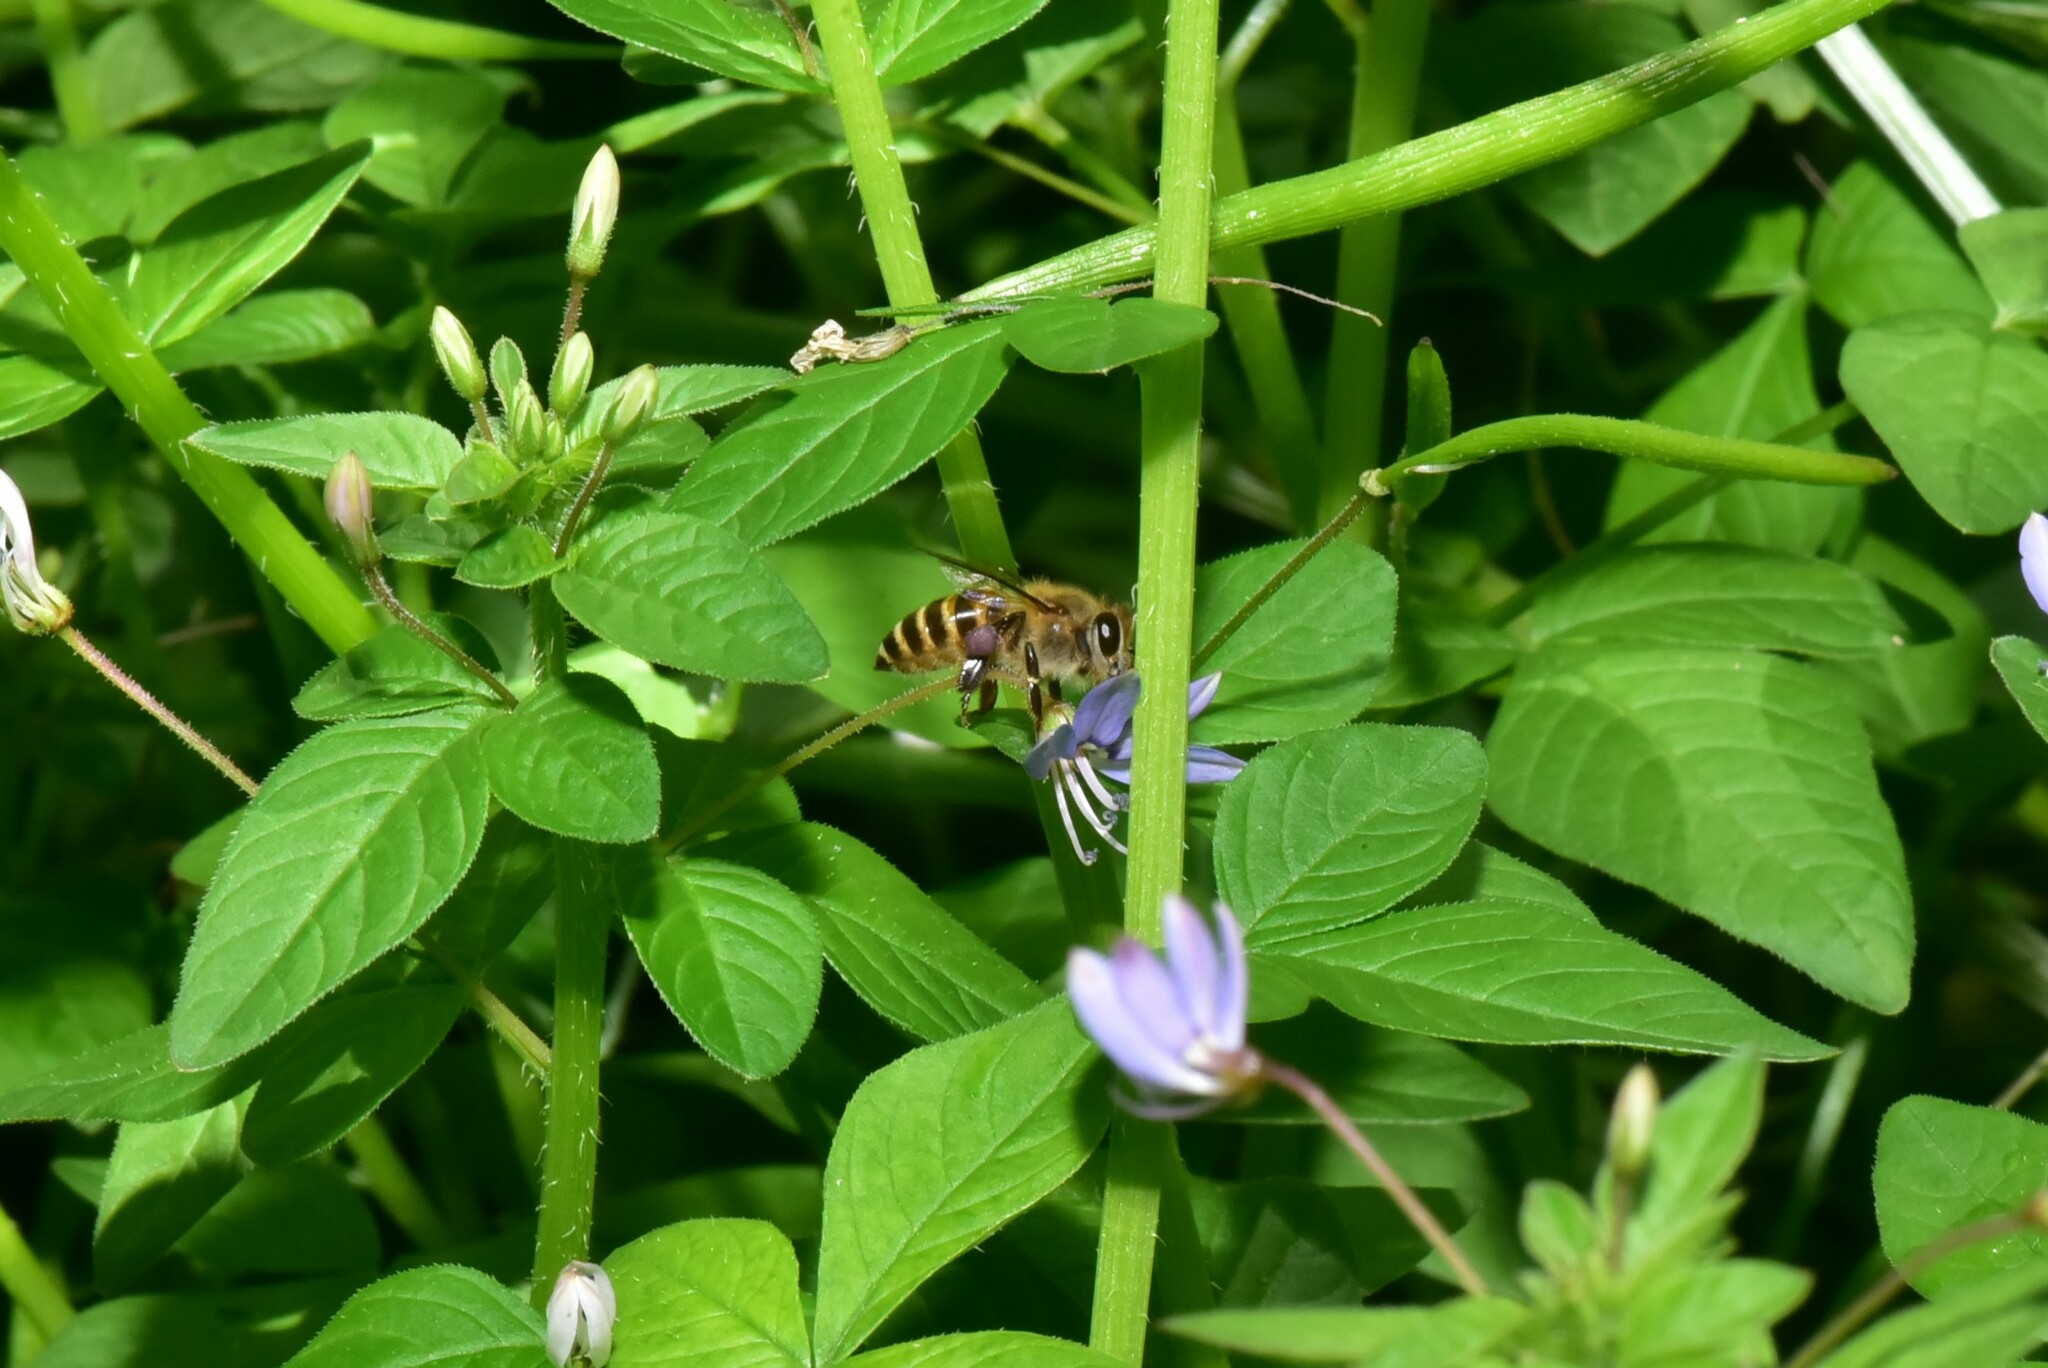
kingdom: Animalia
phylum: Arthropoda
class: Insecta
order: Hymenoptera
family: Apidae
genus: Apis
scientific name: Apis cerana
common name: Honey bee
